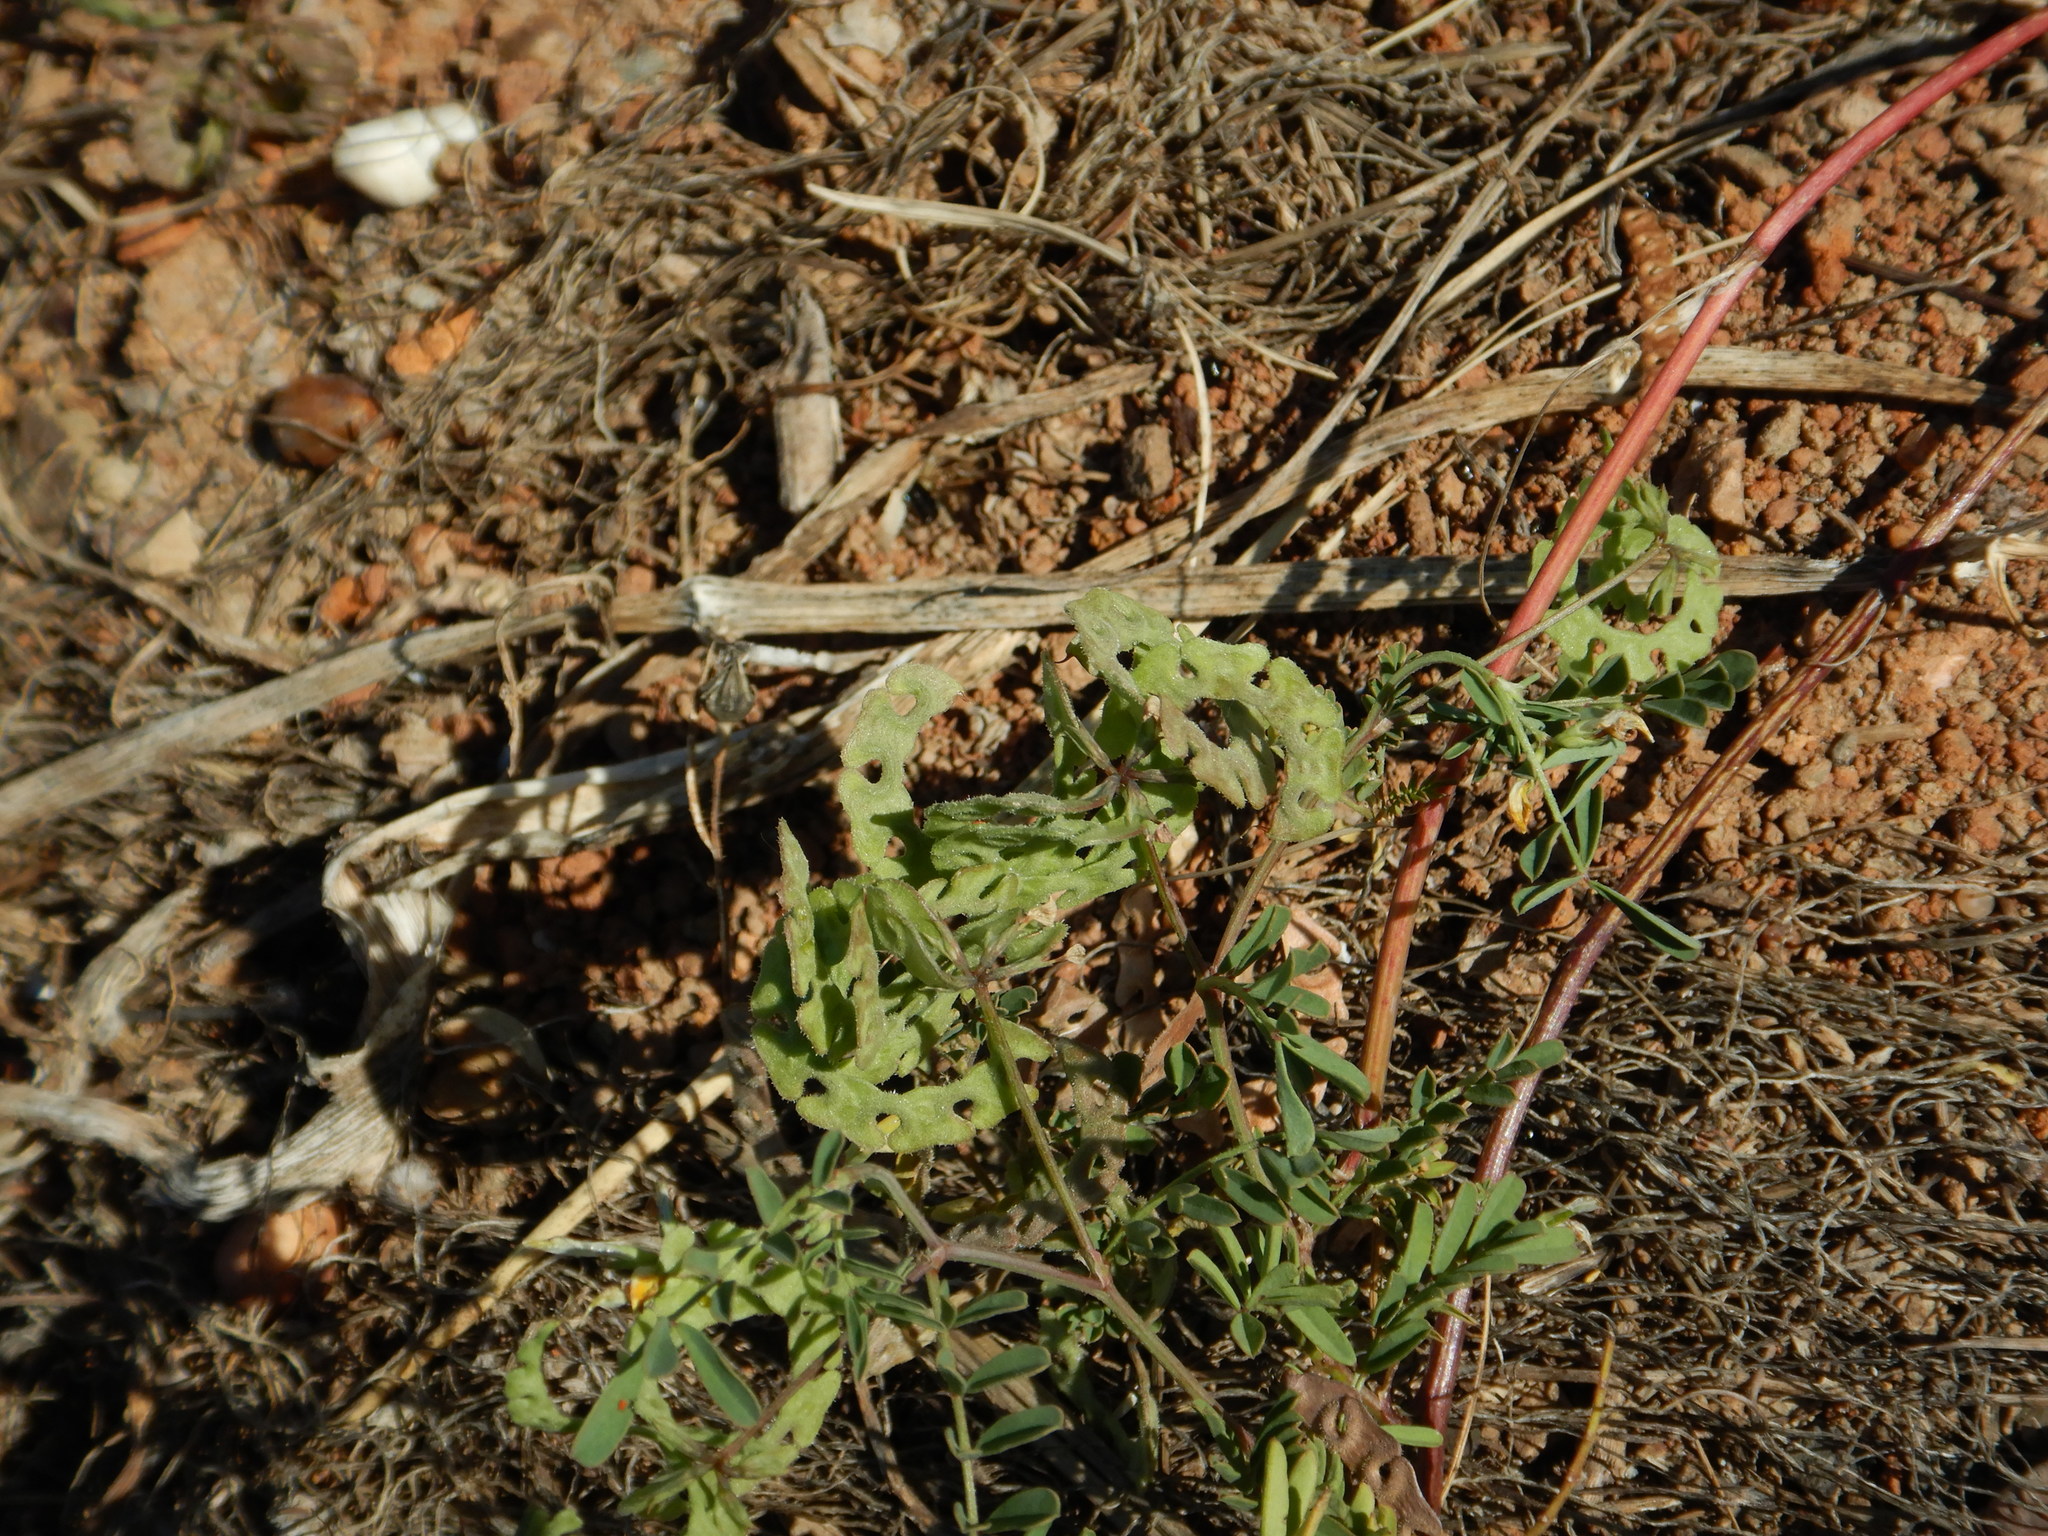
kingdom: Plantae
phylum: Tracheophyta
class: Magnoliopsida
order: Fabales
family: Fabaceae
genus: Hippocrepis
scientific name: Hippocrepis multisiliquosa
